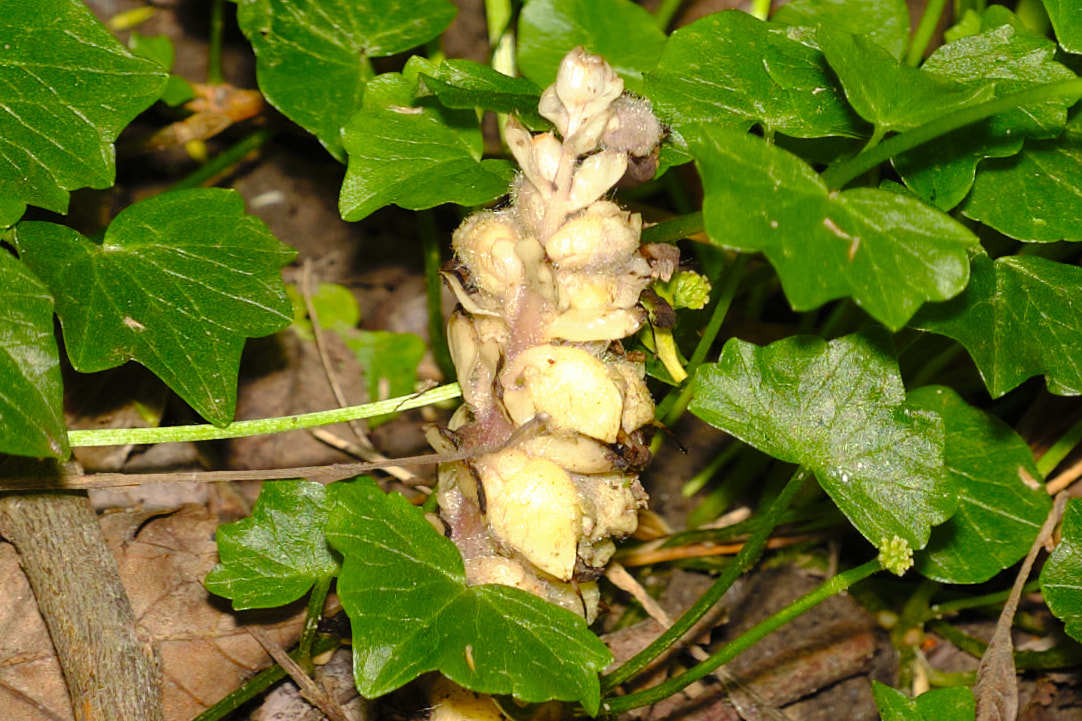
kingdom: Plantae
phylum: Tracheophyta
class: Magnoliopsida
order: Lamiales
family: Orobanchaceae
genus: Lathraea
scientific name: Lathraea squamaria
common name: Toothwort
